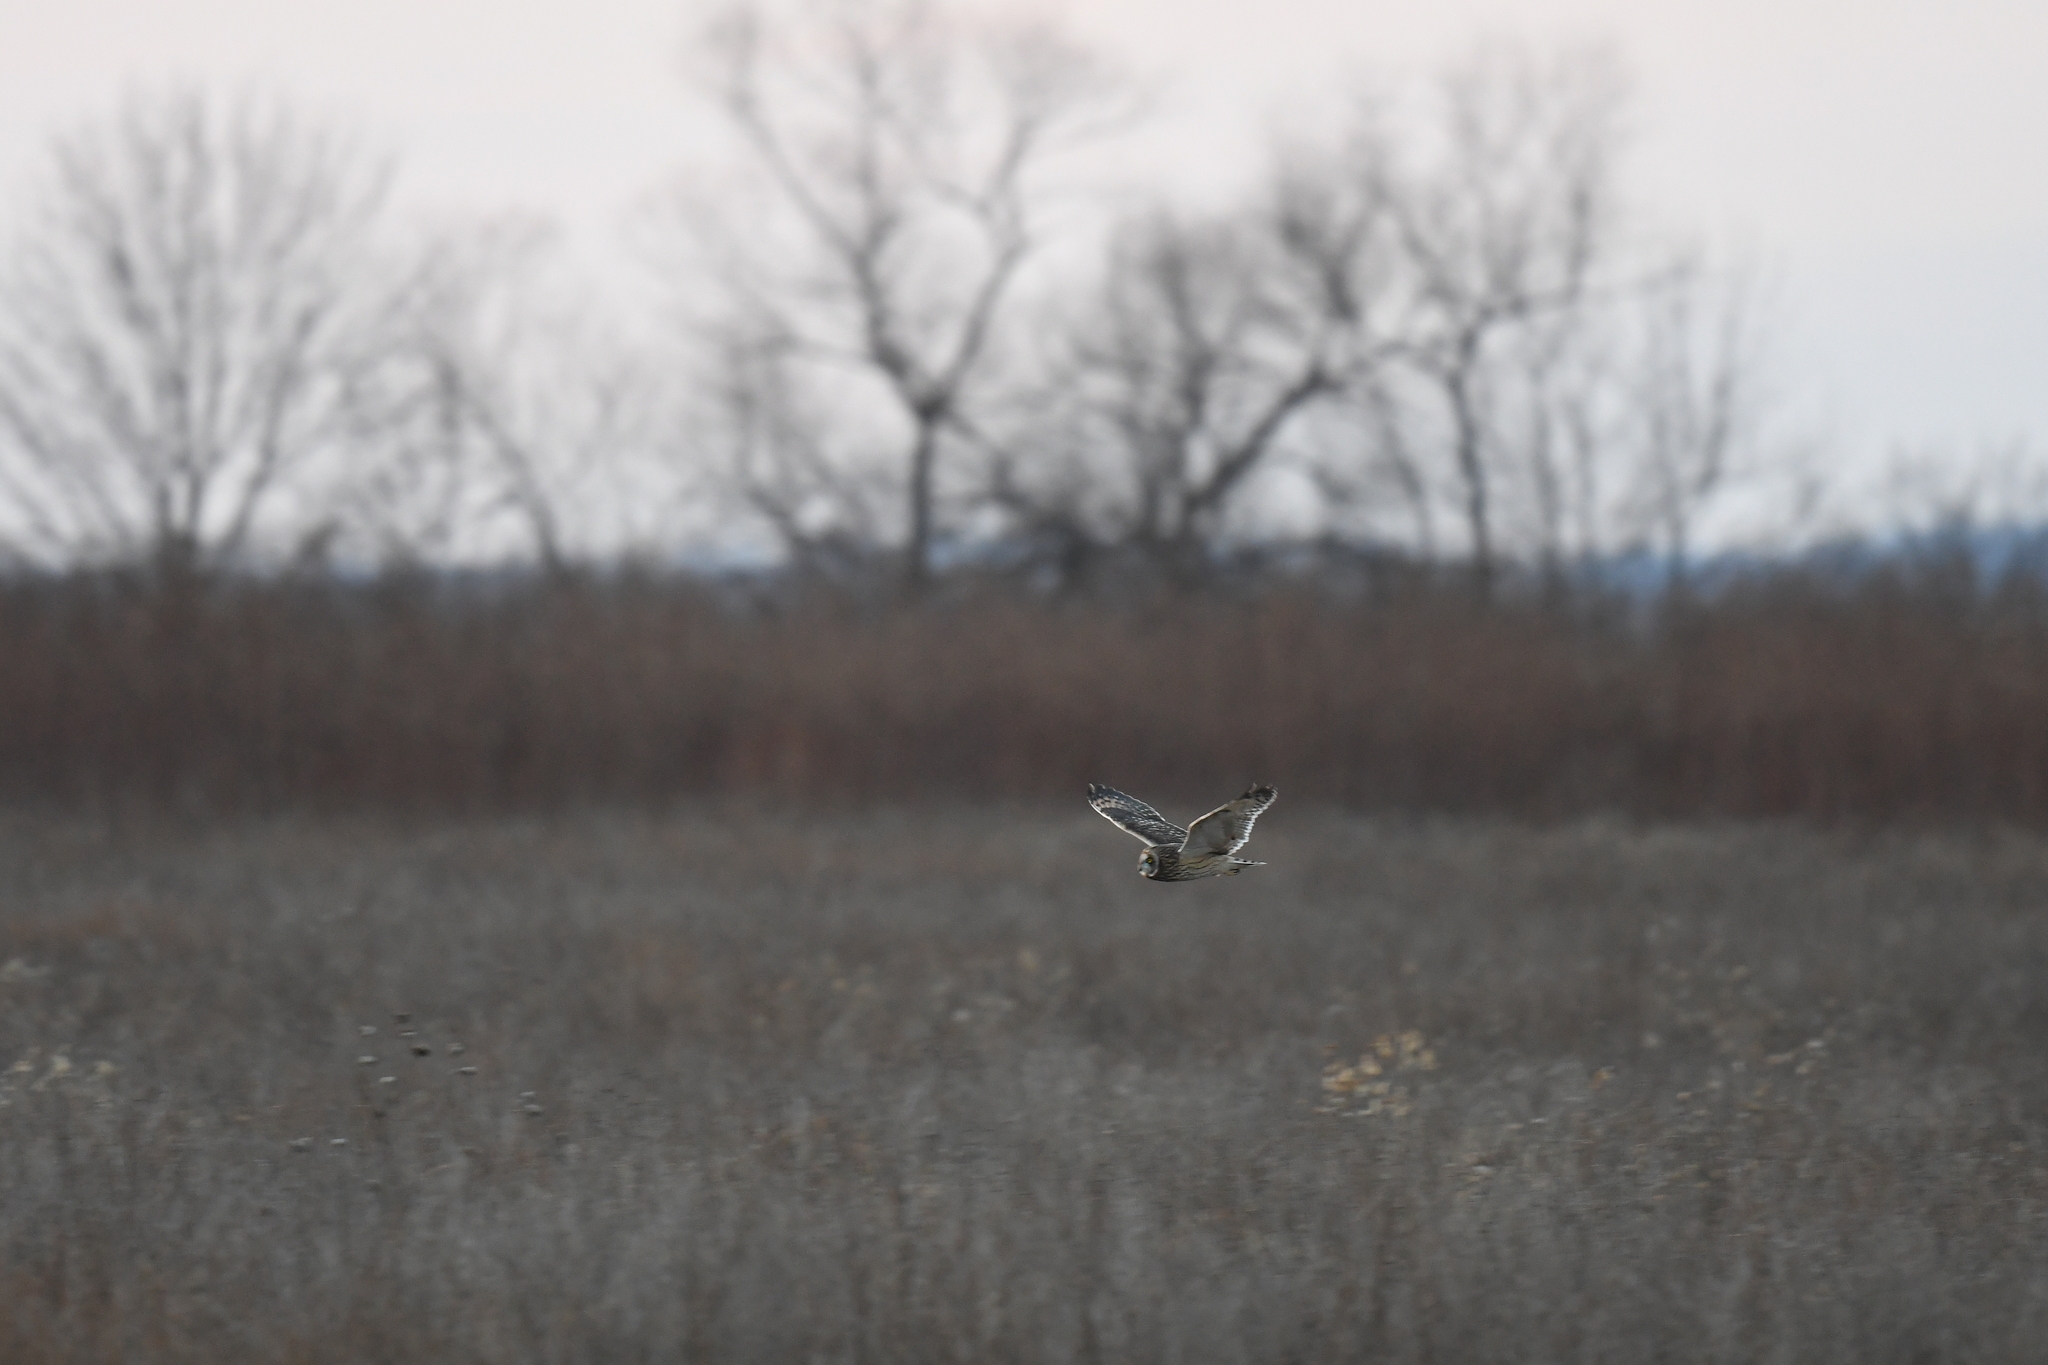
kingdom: Animalia
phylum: Chordata
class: Aves
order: Strigiformes
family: Strigidae
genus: Asio
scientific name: Asio flammeus
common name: Short-eared owl
